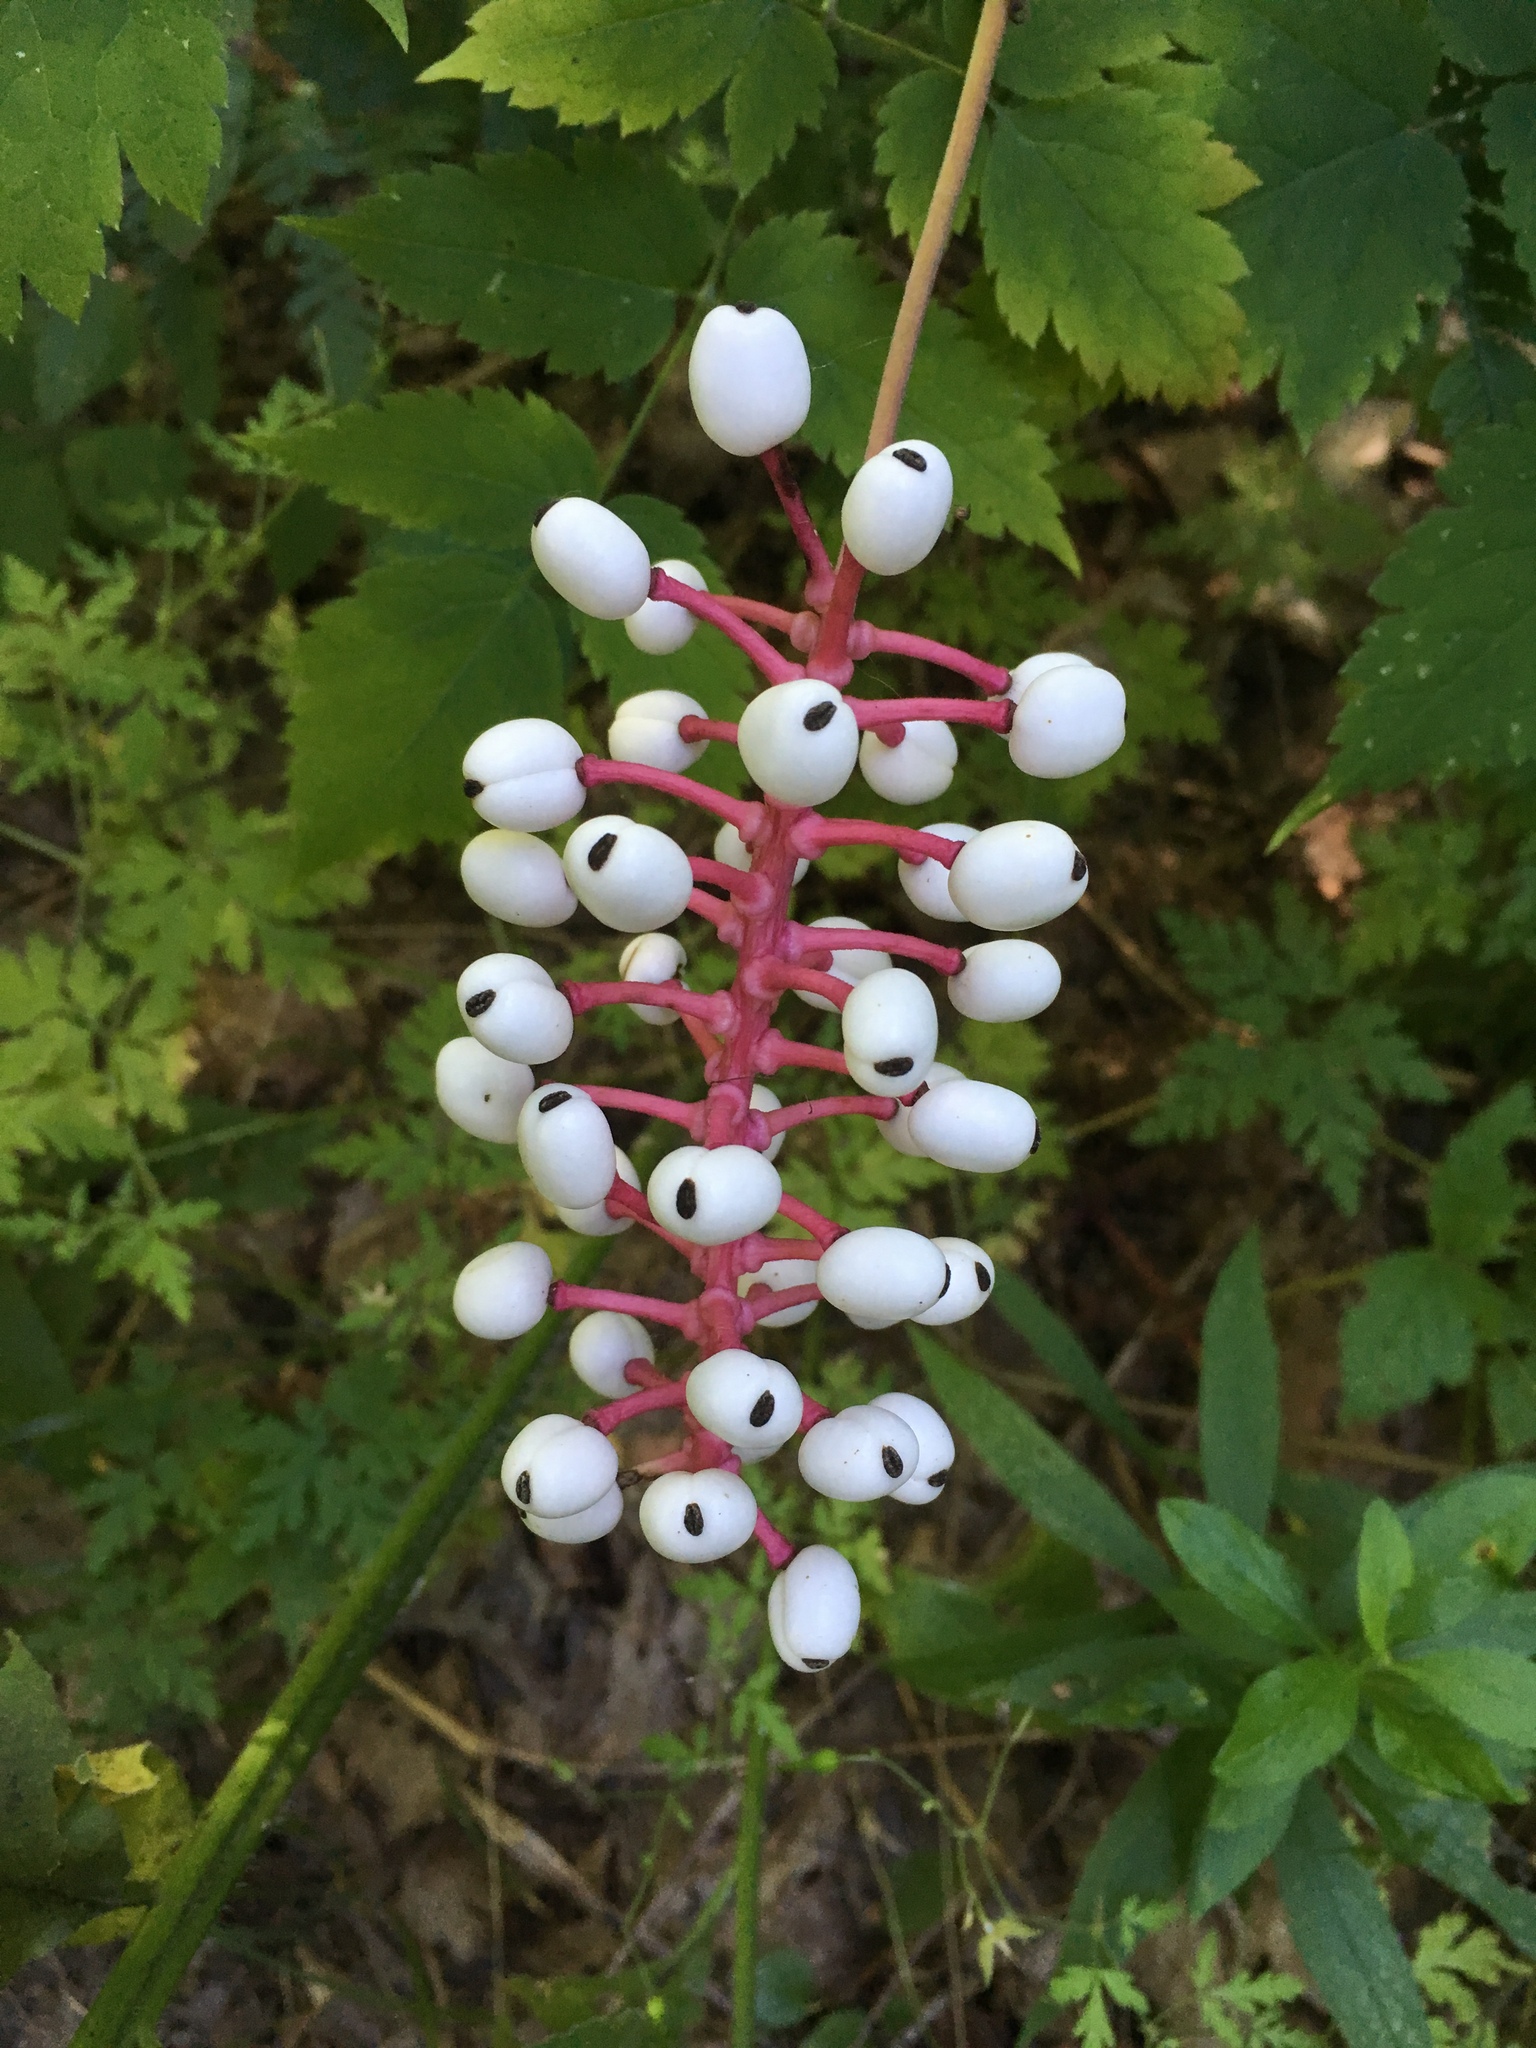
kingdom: Plantae
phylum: Tracheophyta
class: Magnoliopsida
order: Ranunculales
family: Ranunculaceae
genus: Actaea
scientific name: Actaea pachypoda
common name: Doll's-eyes
